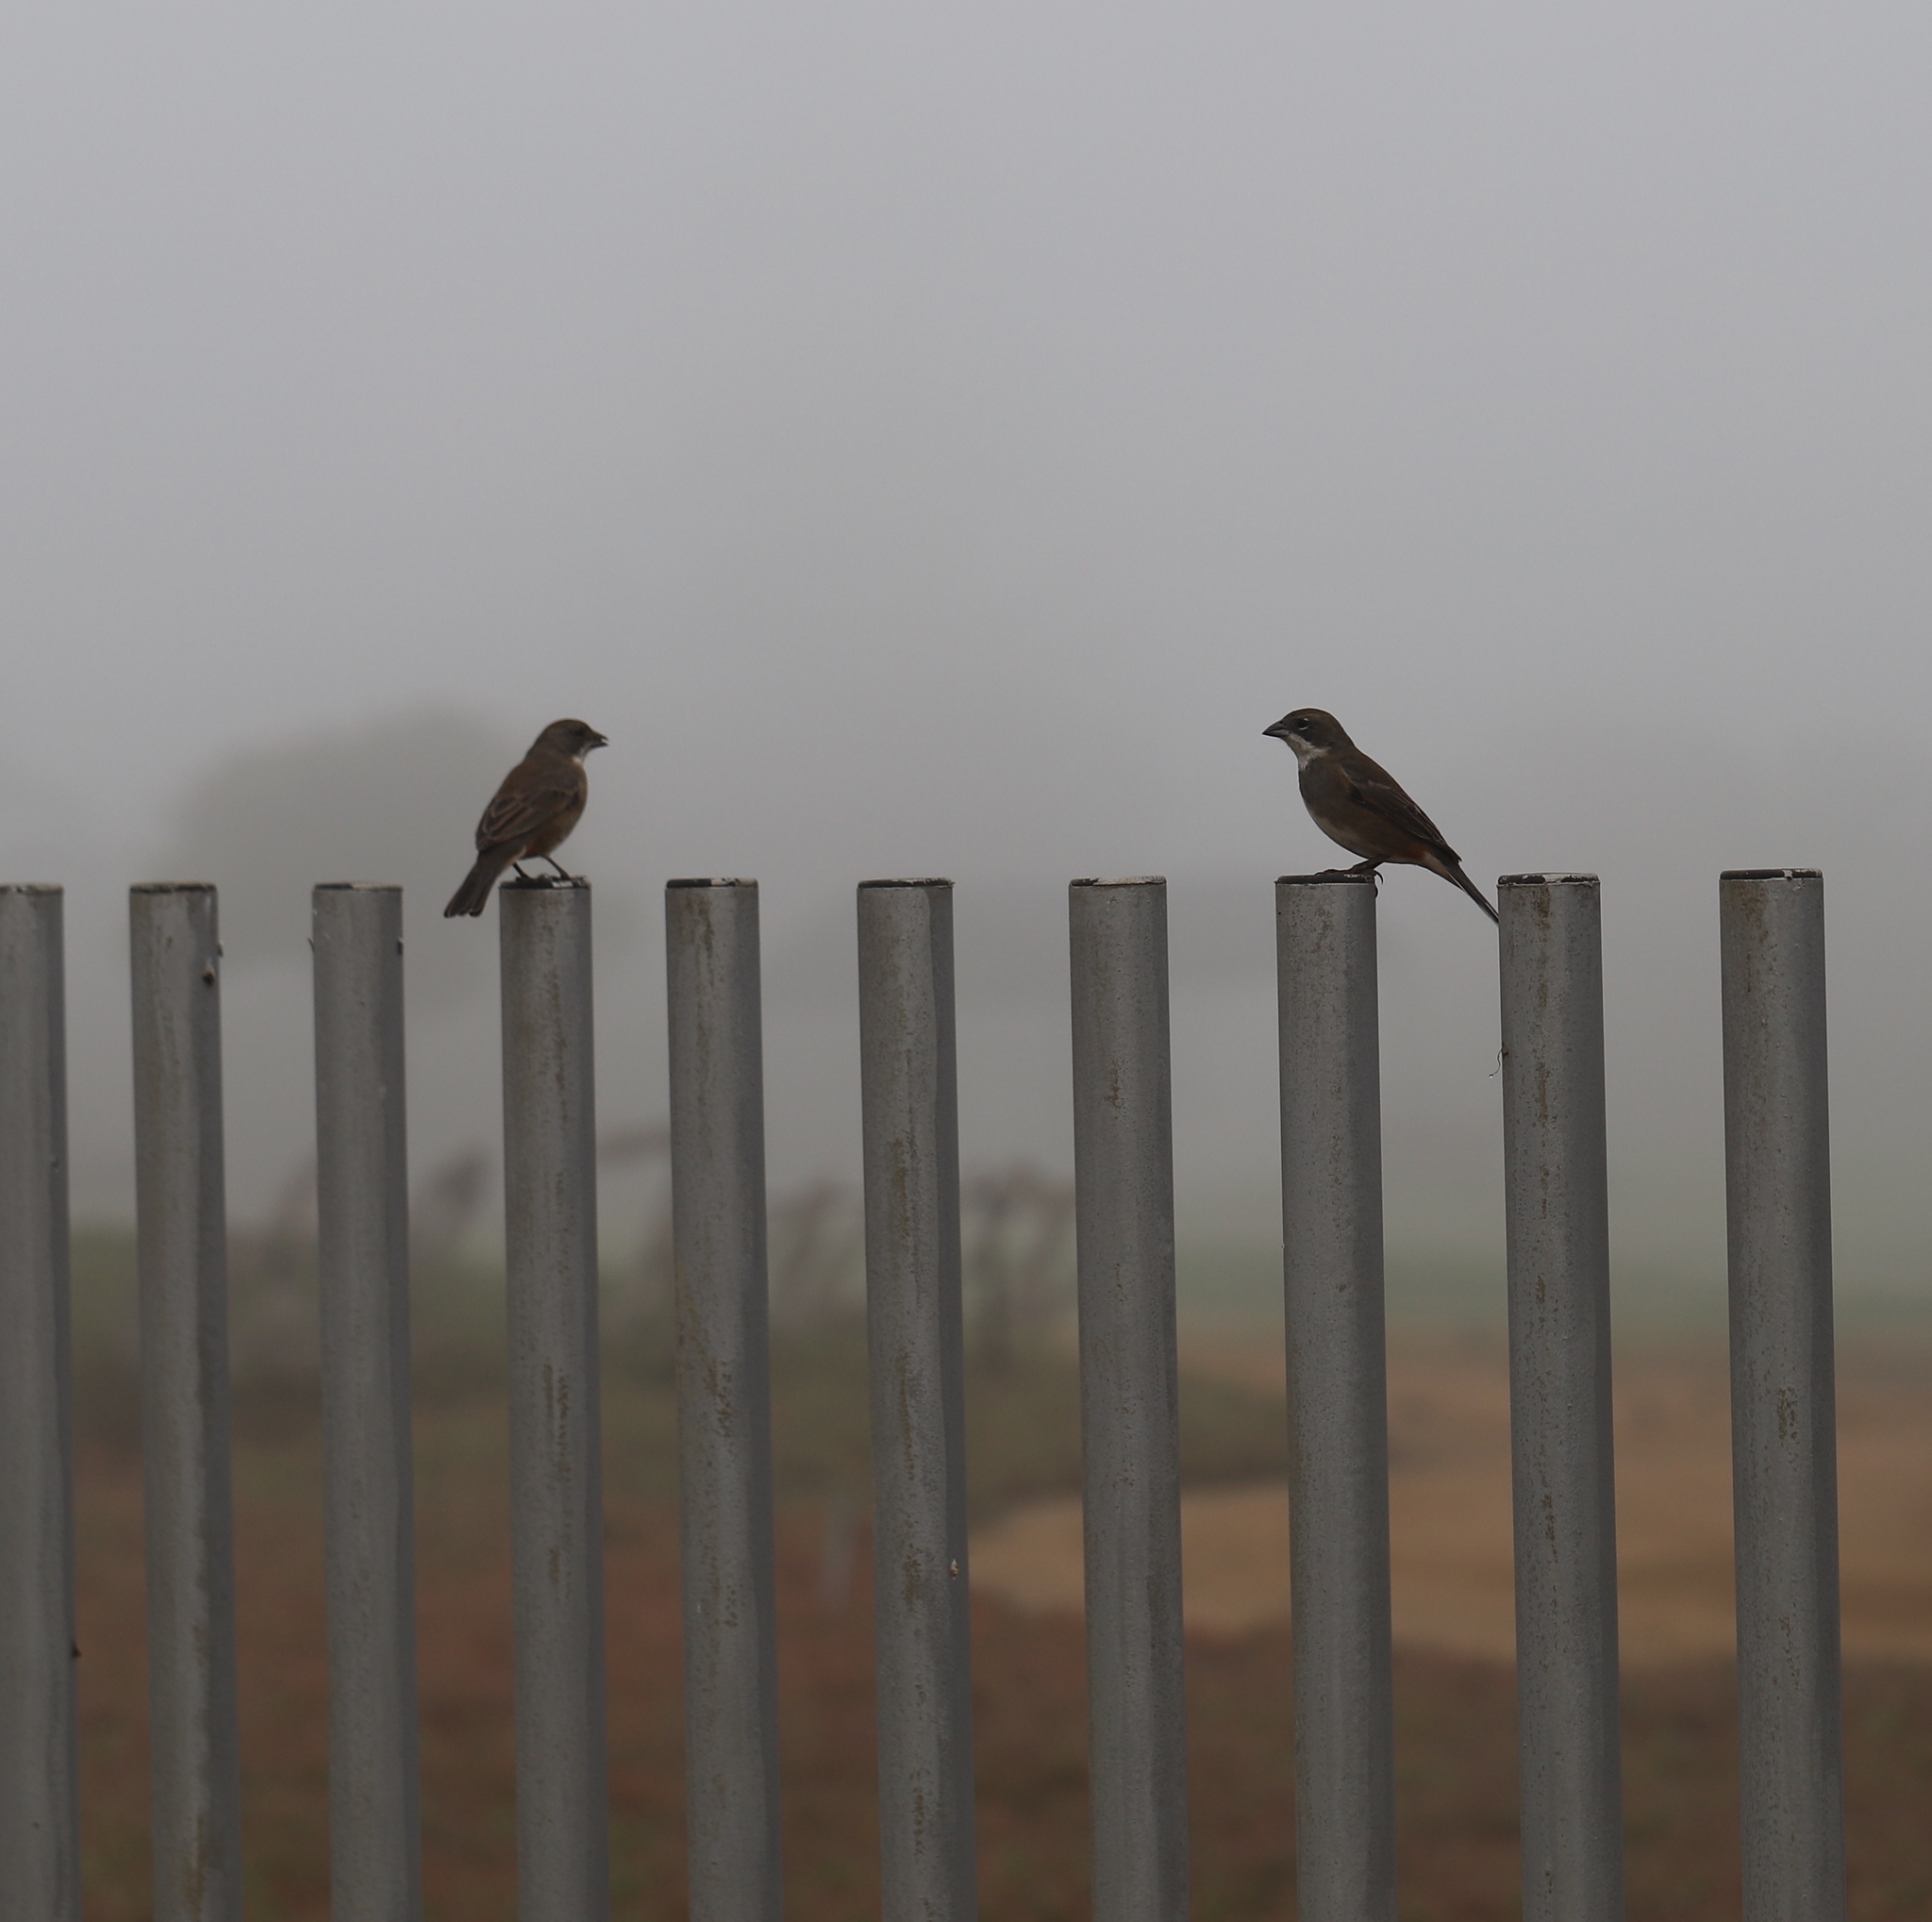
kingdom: Animalia
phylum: Chordata
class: Aves
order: Passeriformes
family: Thraupidae
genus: Diuca
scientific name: Diuca diuca
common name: Common diuca finch
